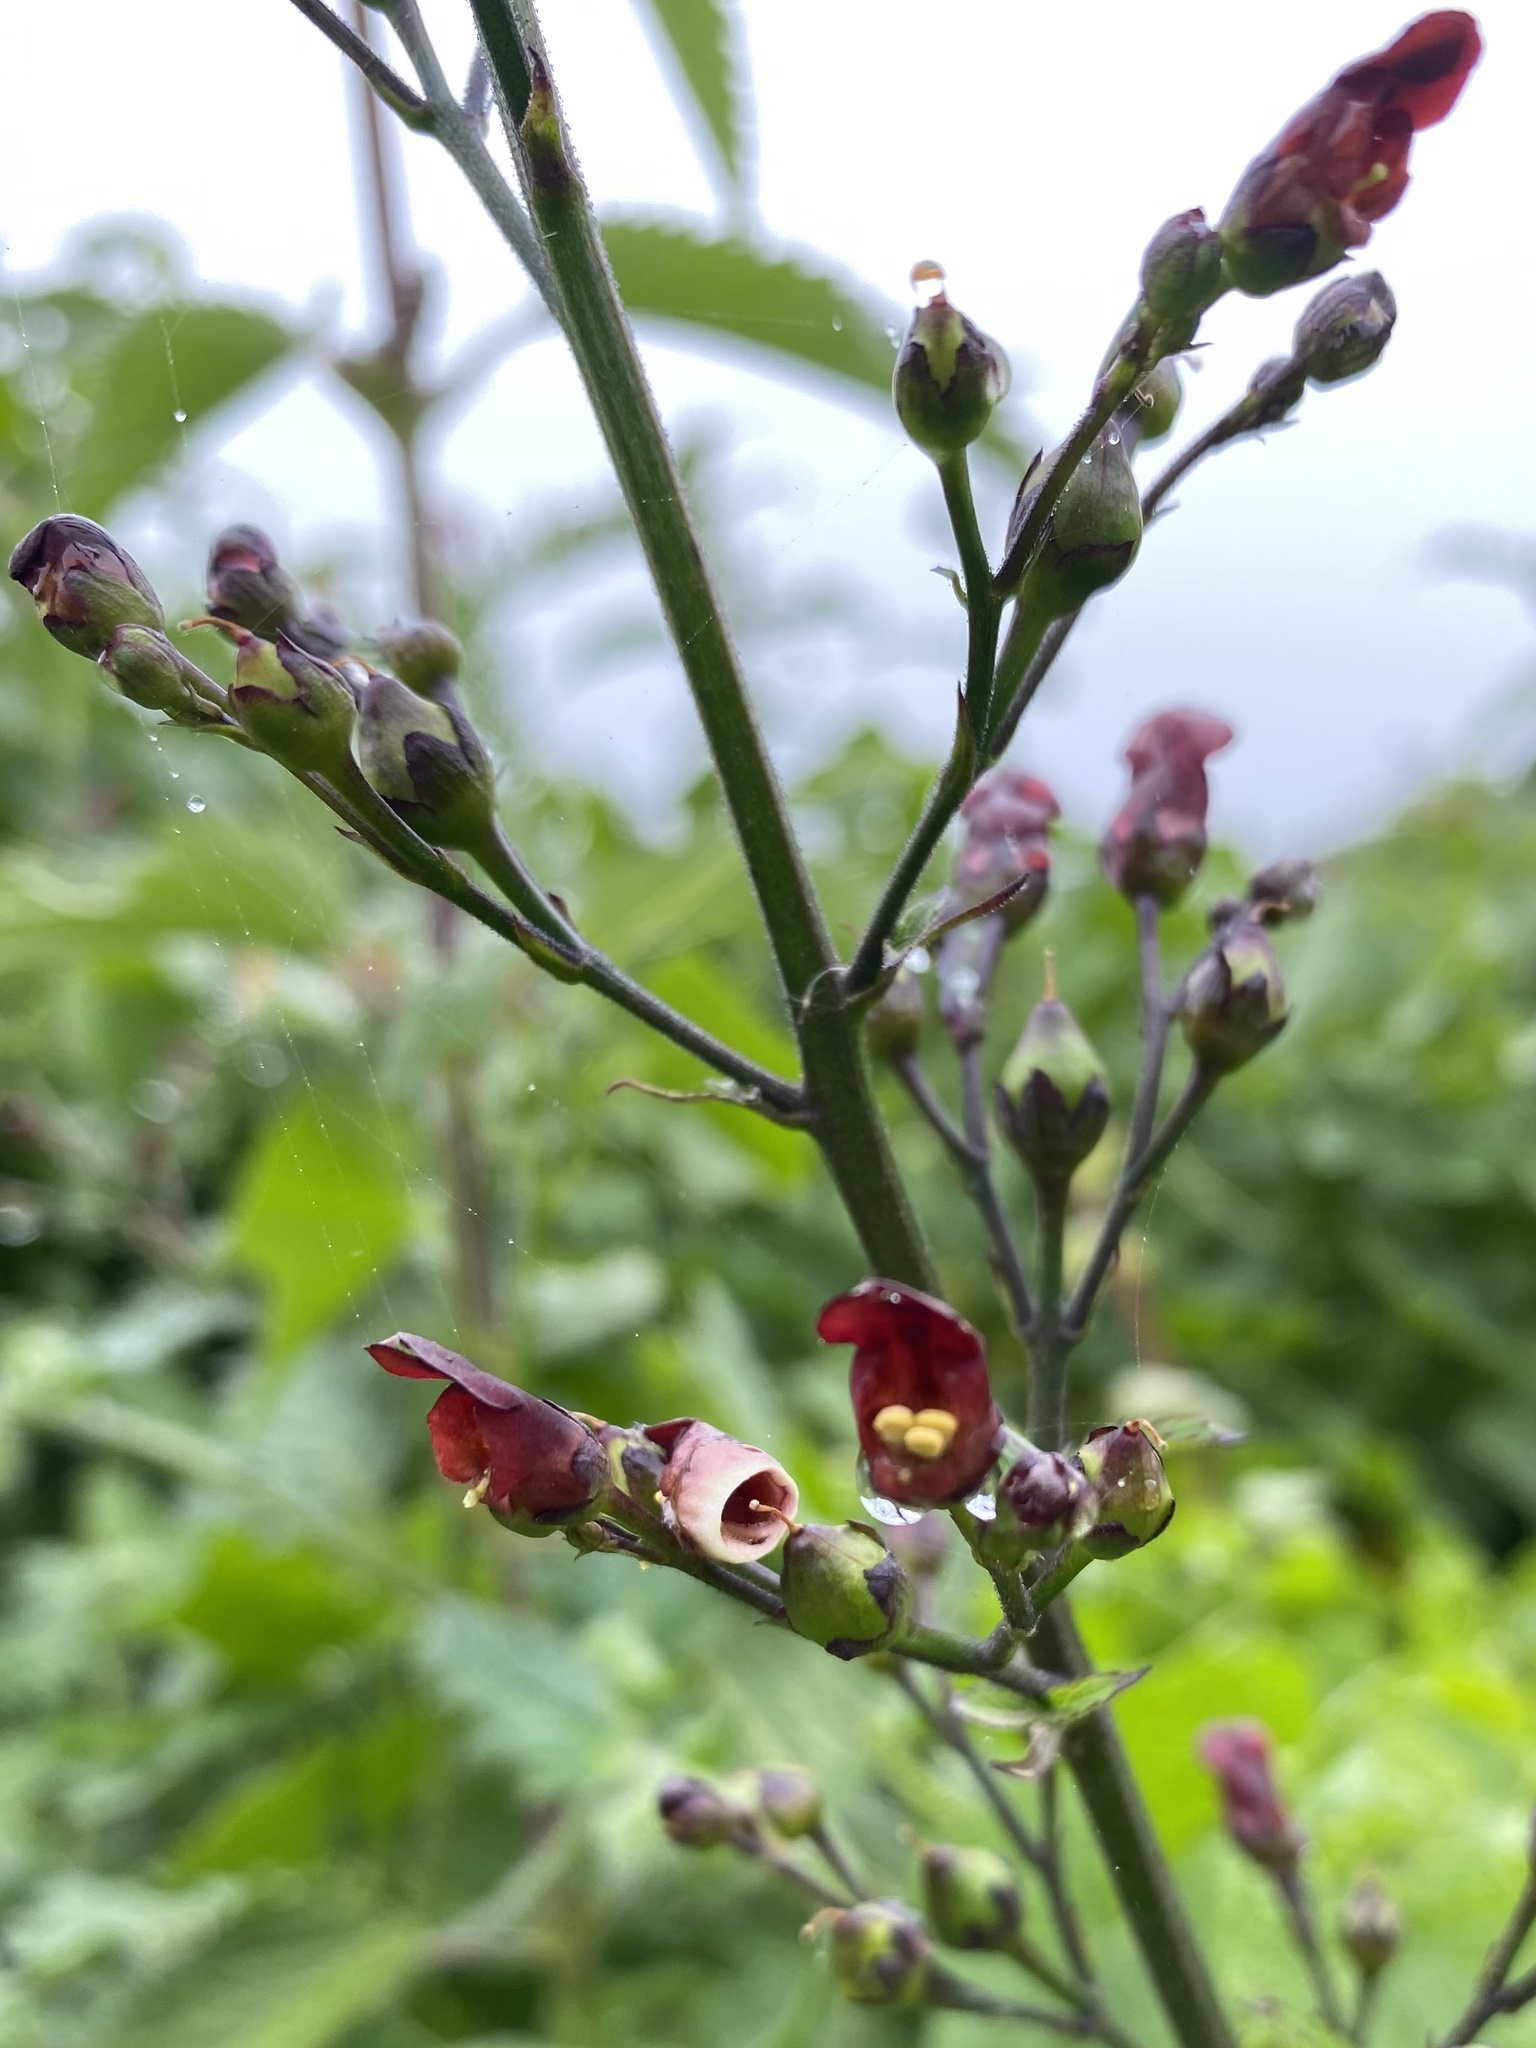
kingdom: Plantae
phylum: Tracheophyta
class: Magnoliopsida
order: Lamiales
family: Scrophulariaceae
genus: Scrophularia
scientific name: Scrophularia californica
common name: California figwort
